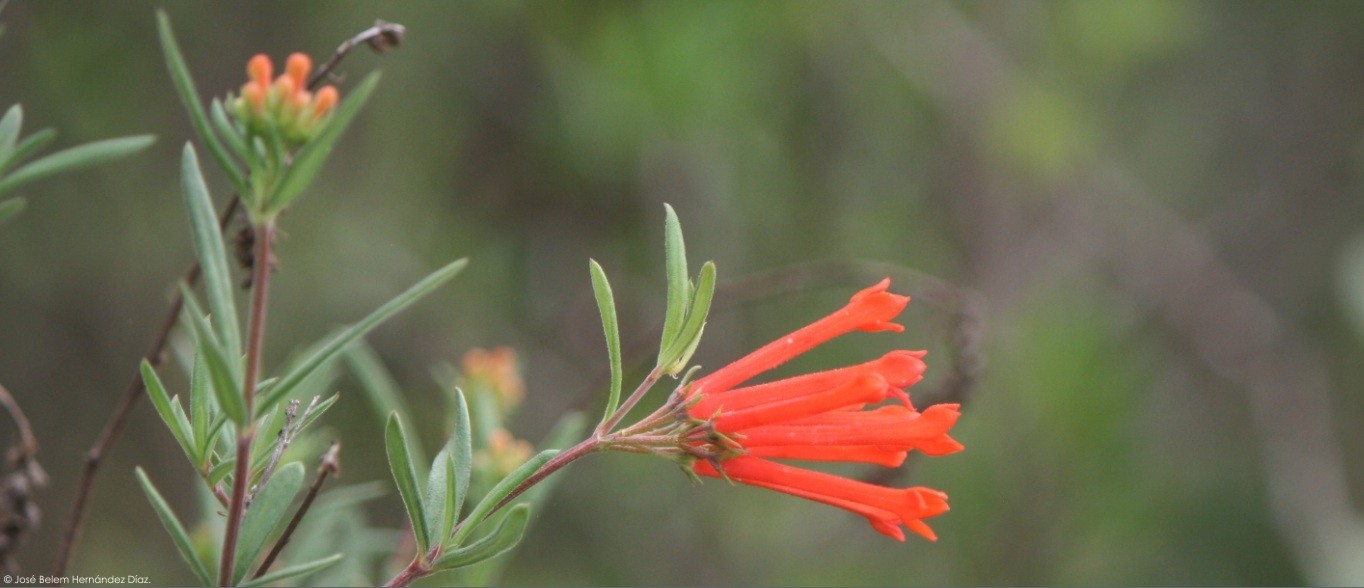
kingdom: Plantae
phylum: Tracheophyta
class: Magnoliopsida
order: Gentianales
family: Rubiaceae
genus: Bouvardia
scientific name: Bouvardia tenuifolia
